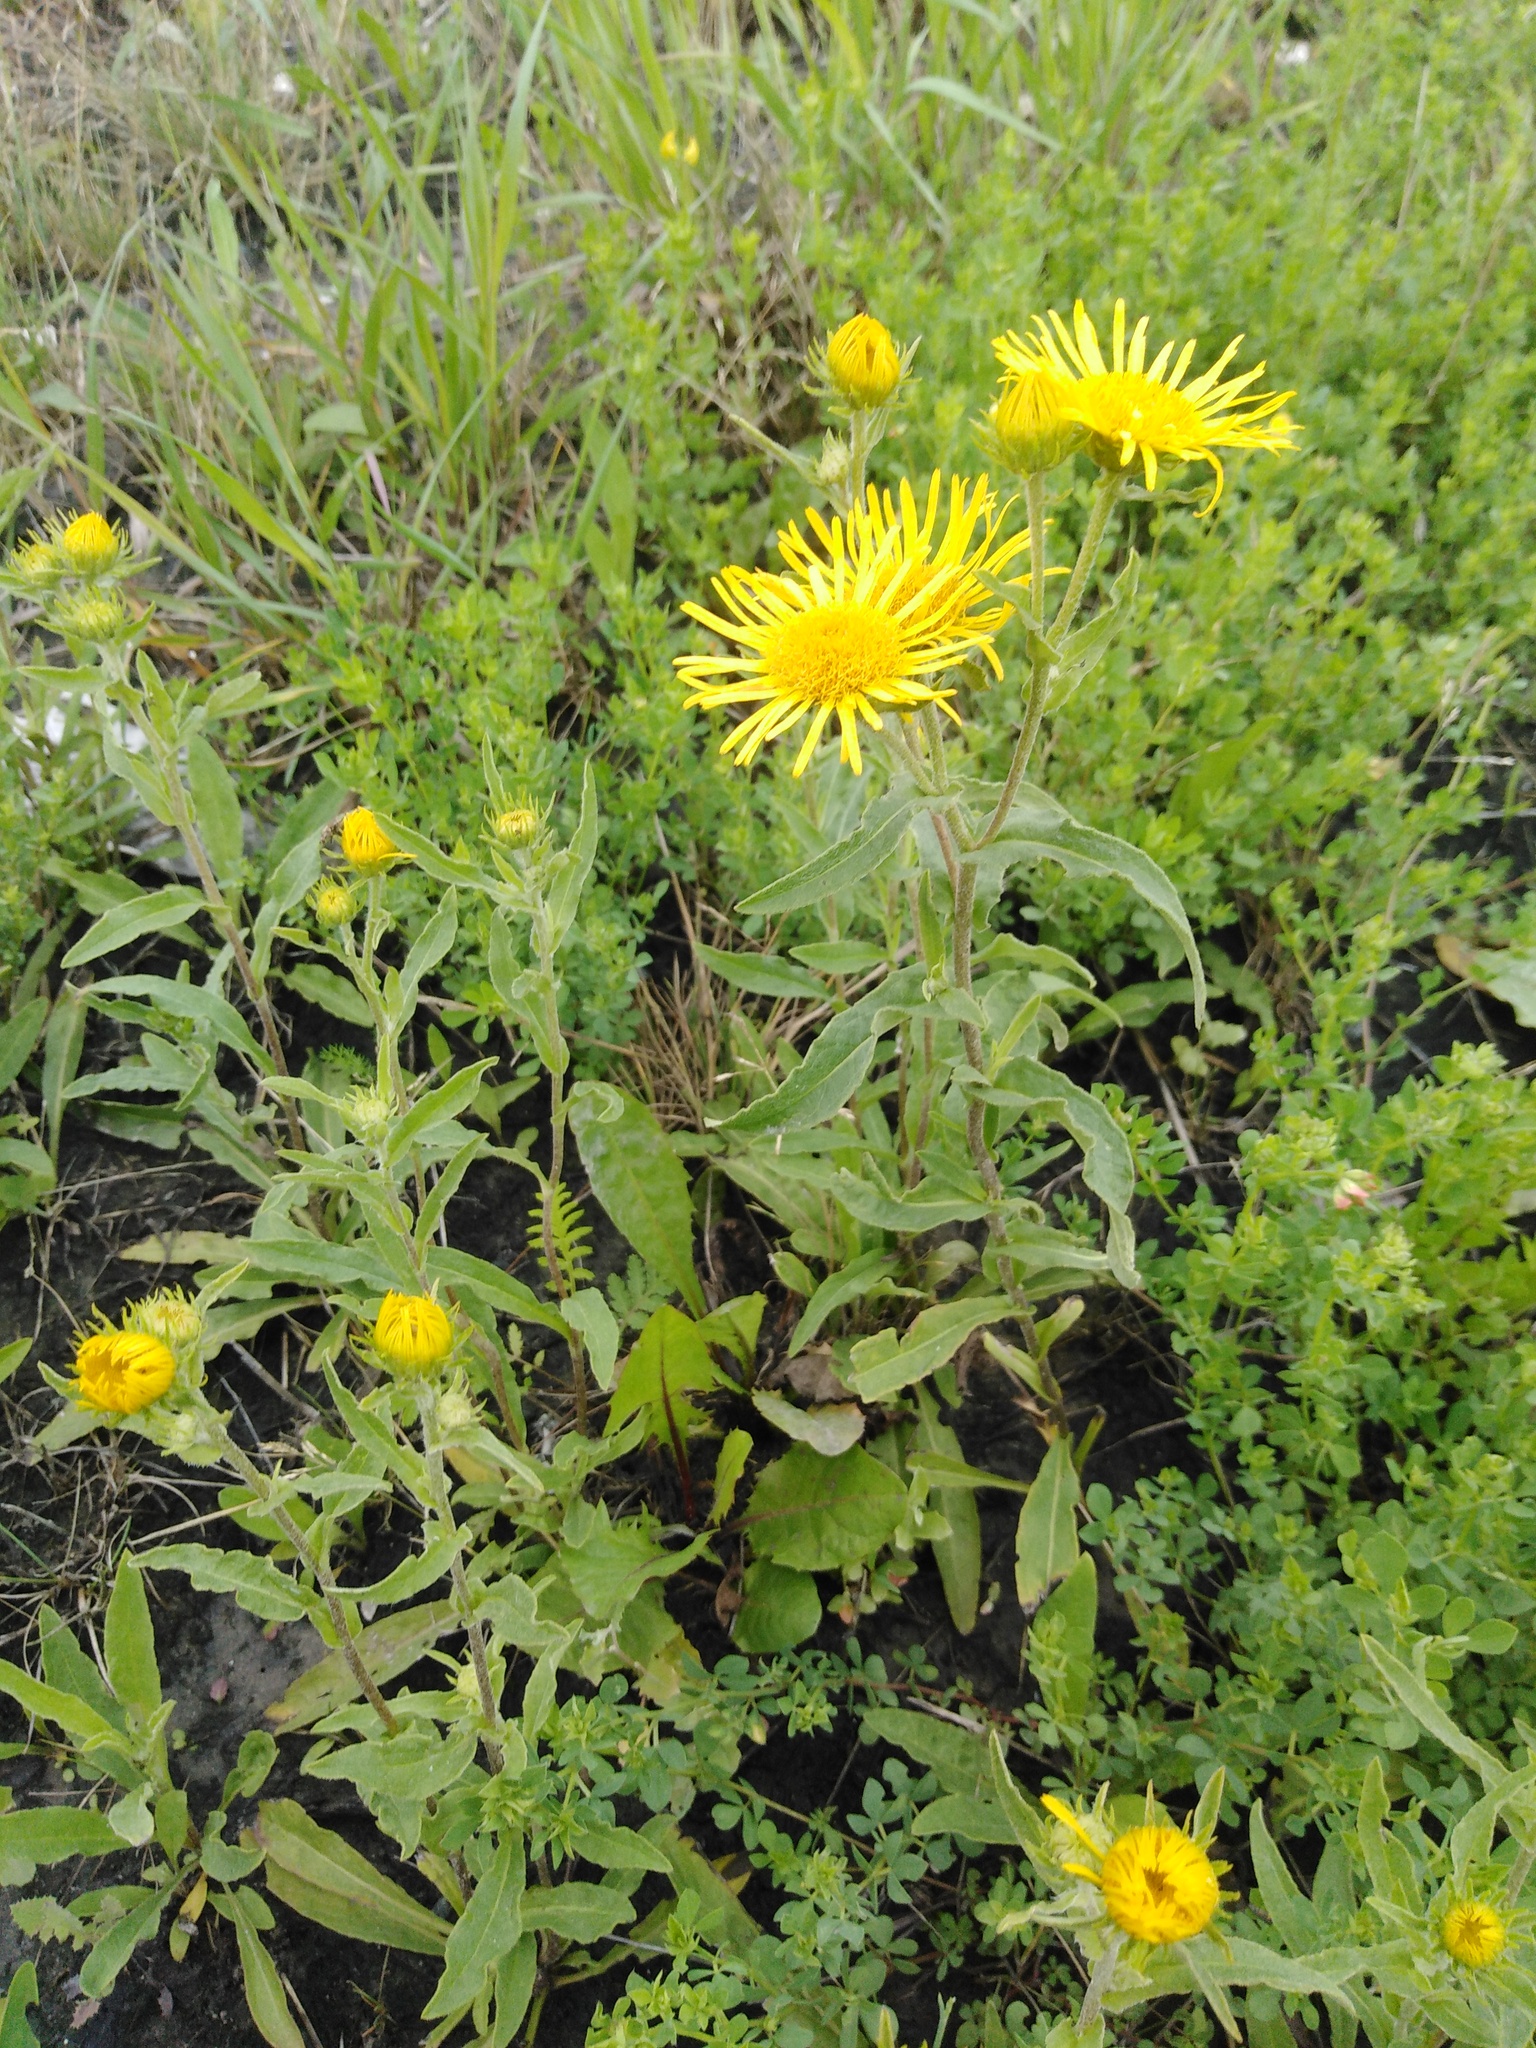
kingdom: Plantae
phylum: Tracheophyta
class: Magnoliopsida
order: Asterales
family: Asteraceae
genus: Pentanema
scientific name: Pentanema britannicum
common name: British elecampane
